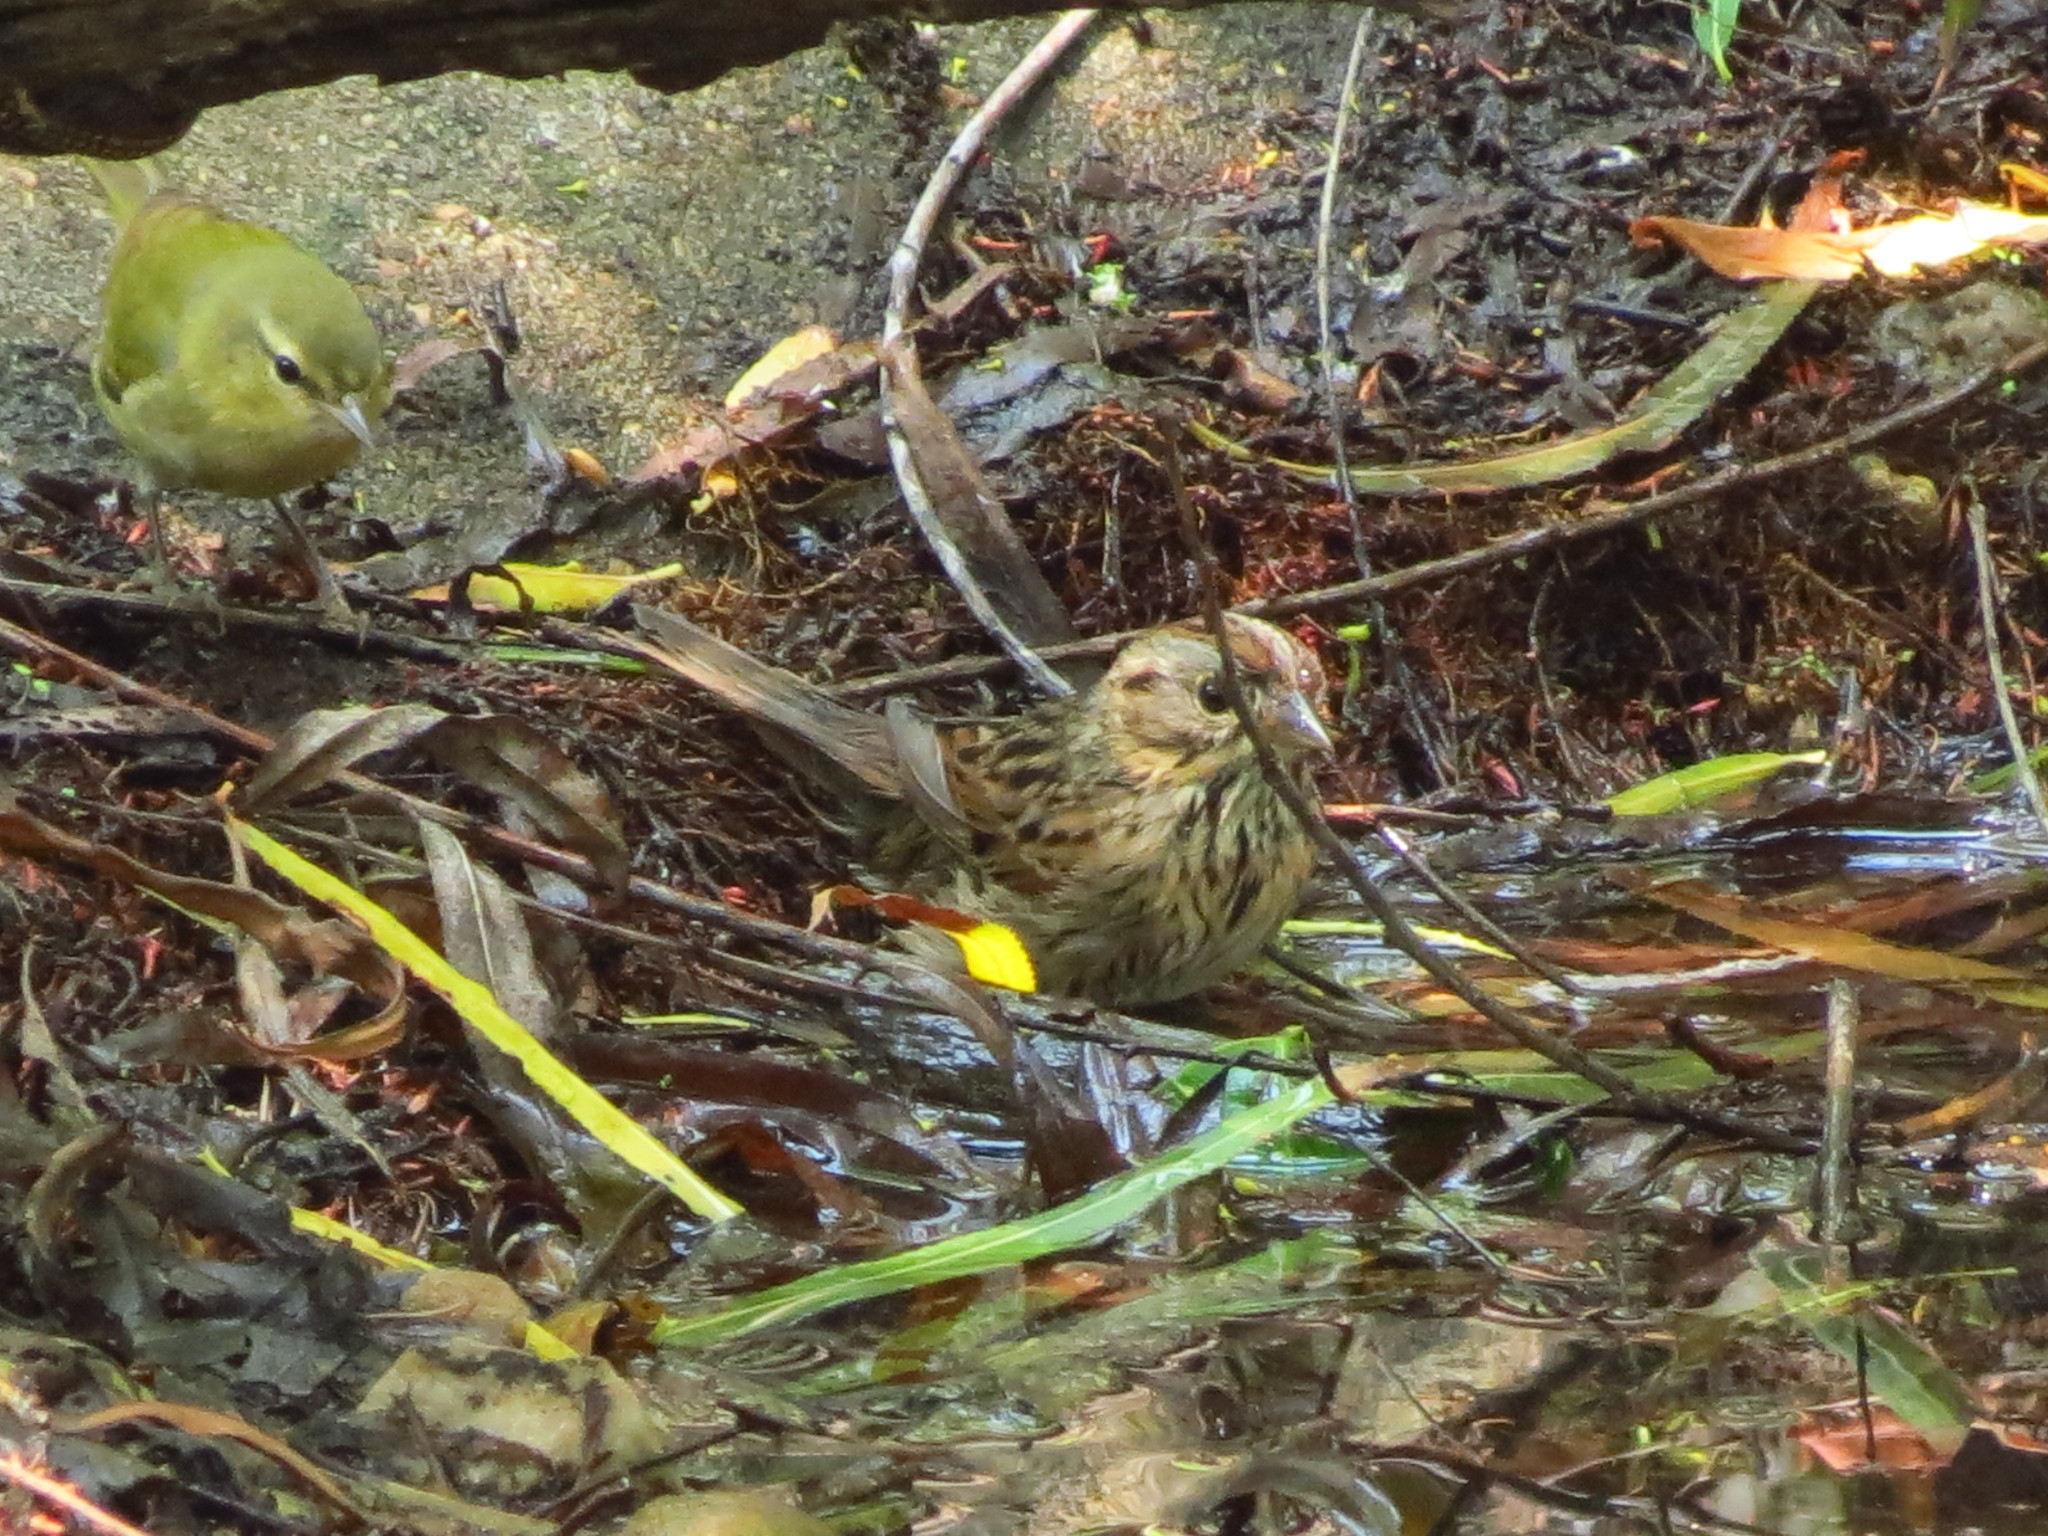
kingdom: Animalia
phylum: Chordata
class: Aves
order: Passeriformes
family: Passerellidae
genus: Melospiza
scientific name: Melospiza lincolnii
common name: Lincoln's sparrow
